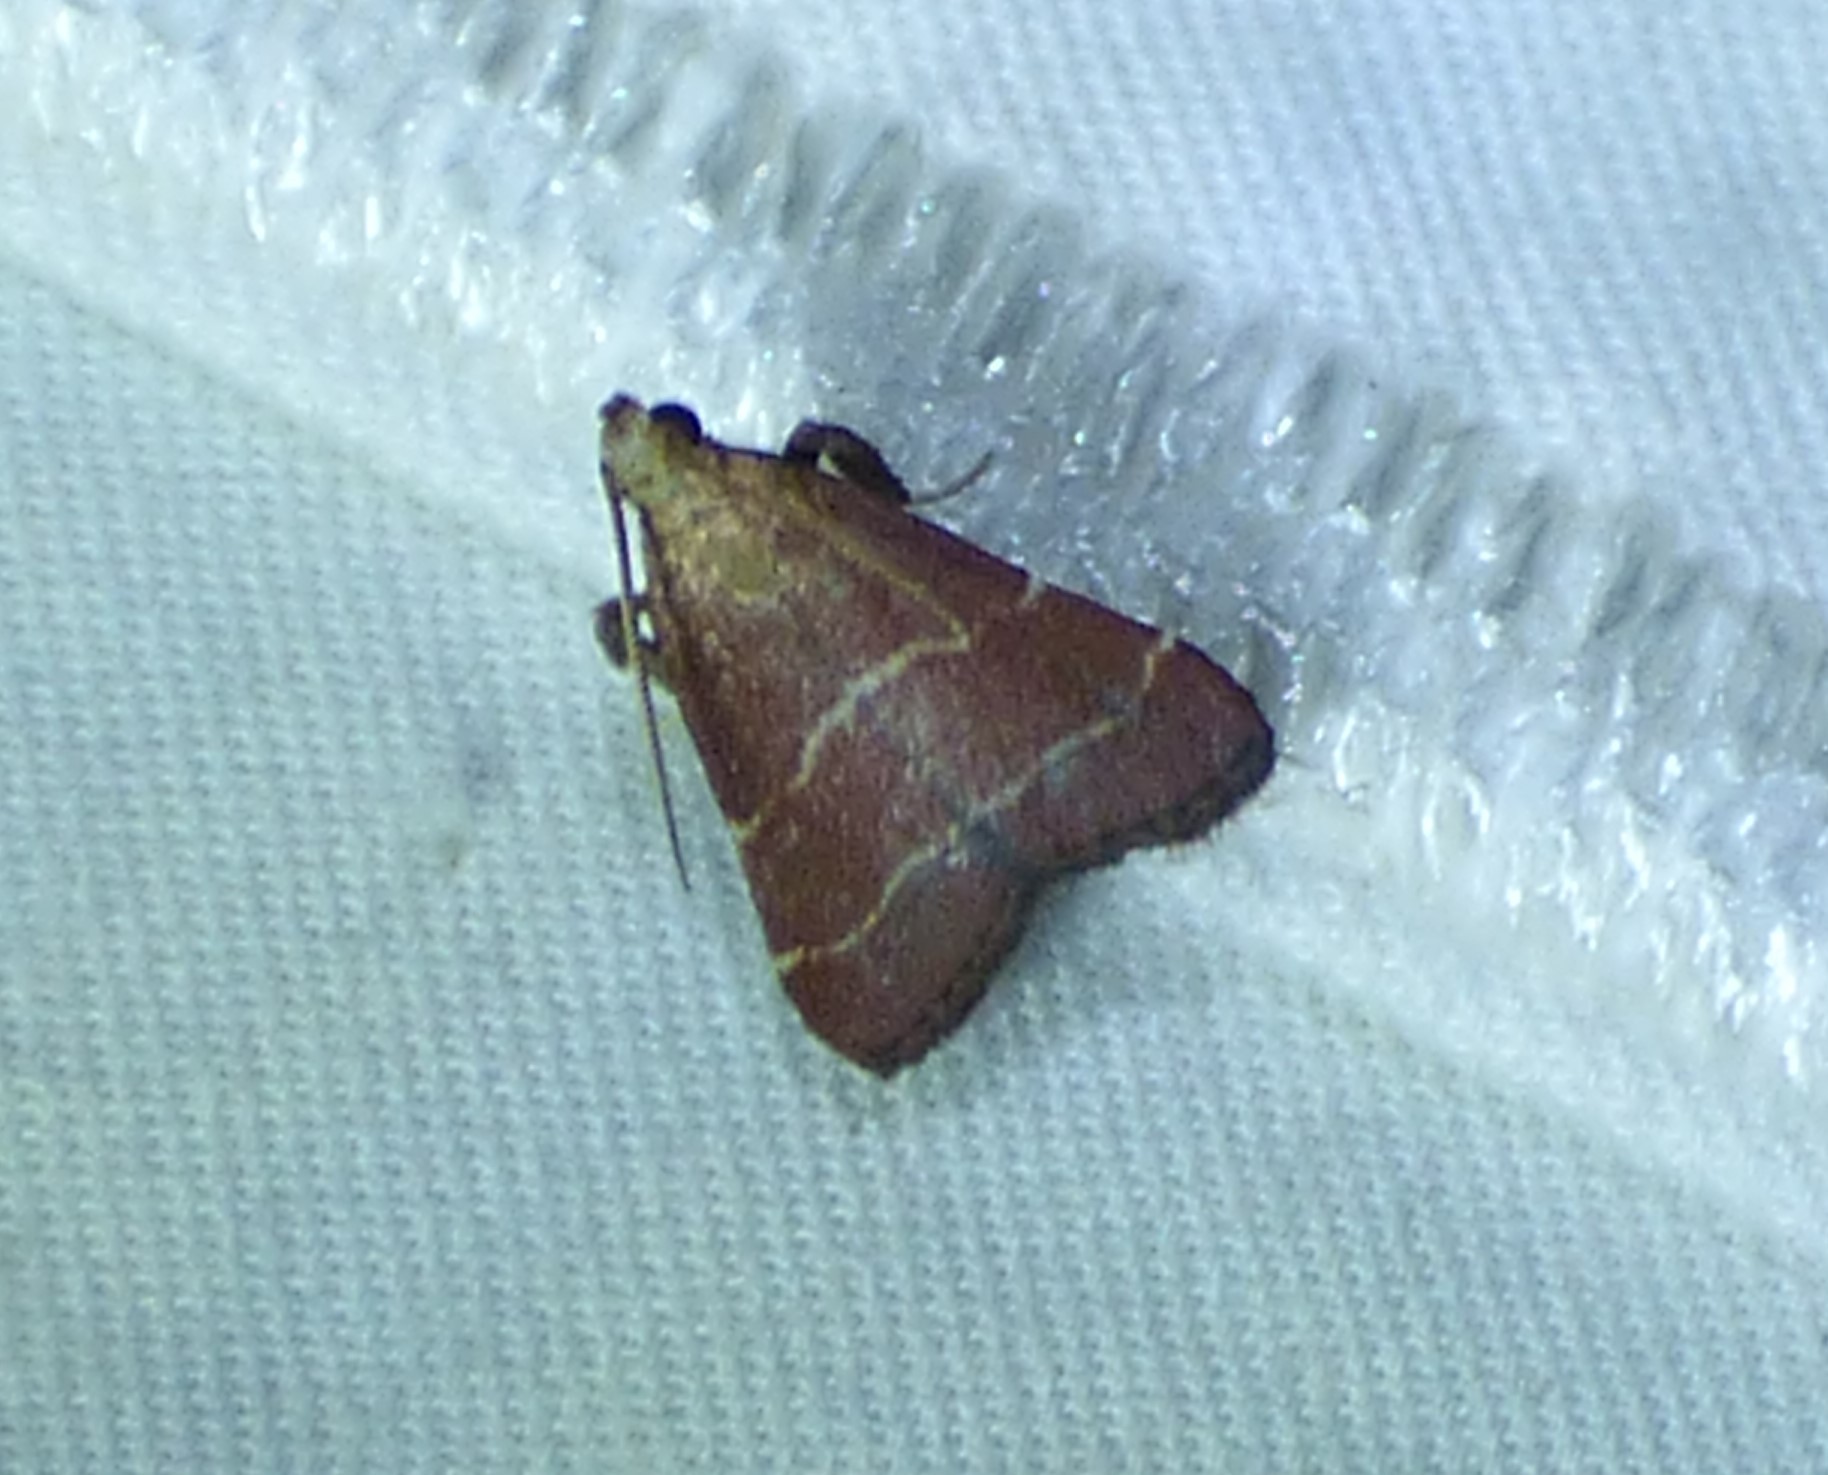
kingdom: Animalia
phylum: Arthropoda
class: Insecta
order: Lepidoptera
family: Pyralidae
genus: Arta
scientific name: Arta statalis
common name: Posturing arta moth
